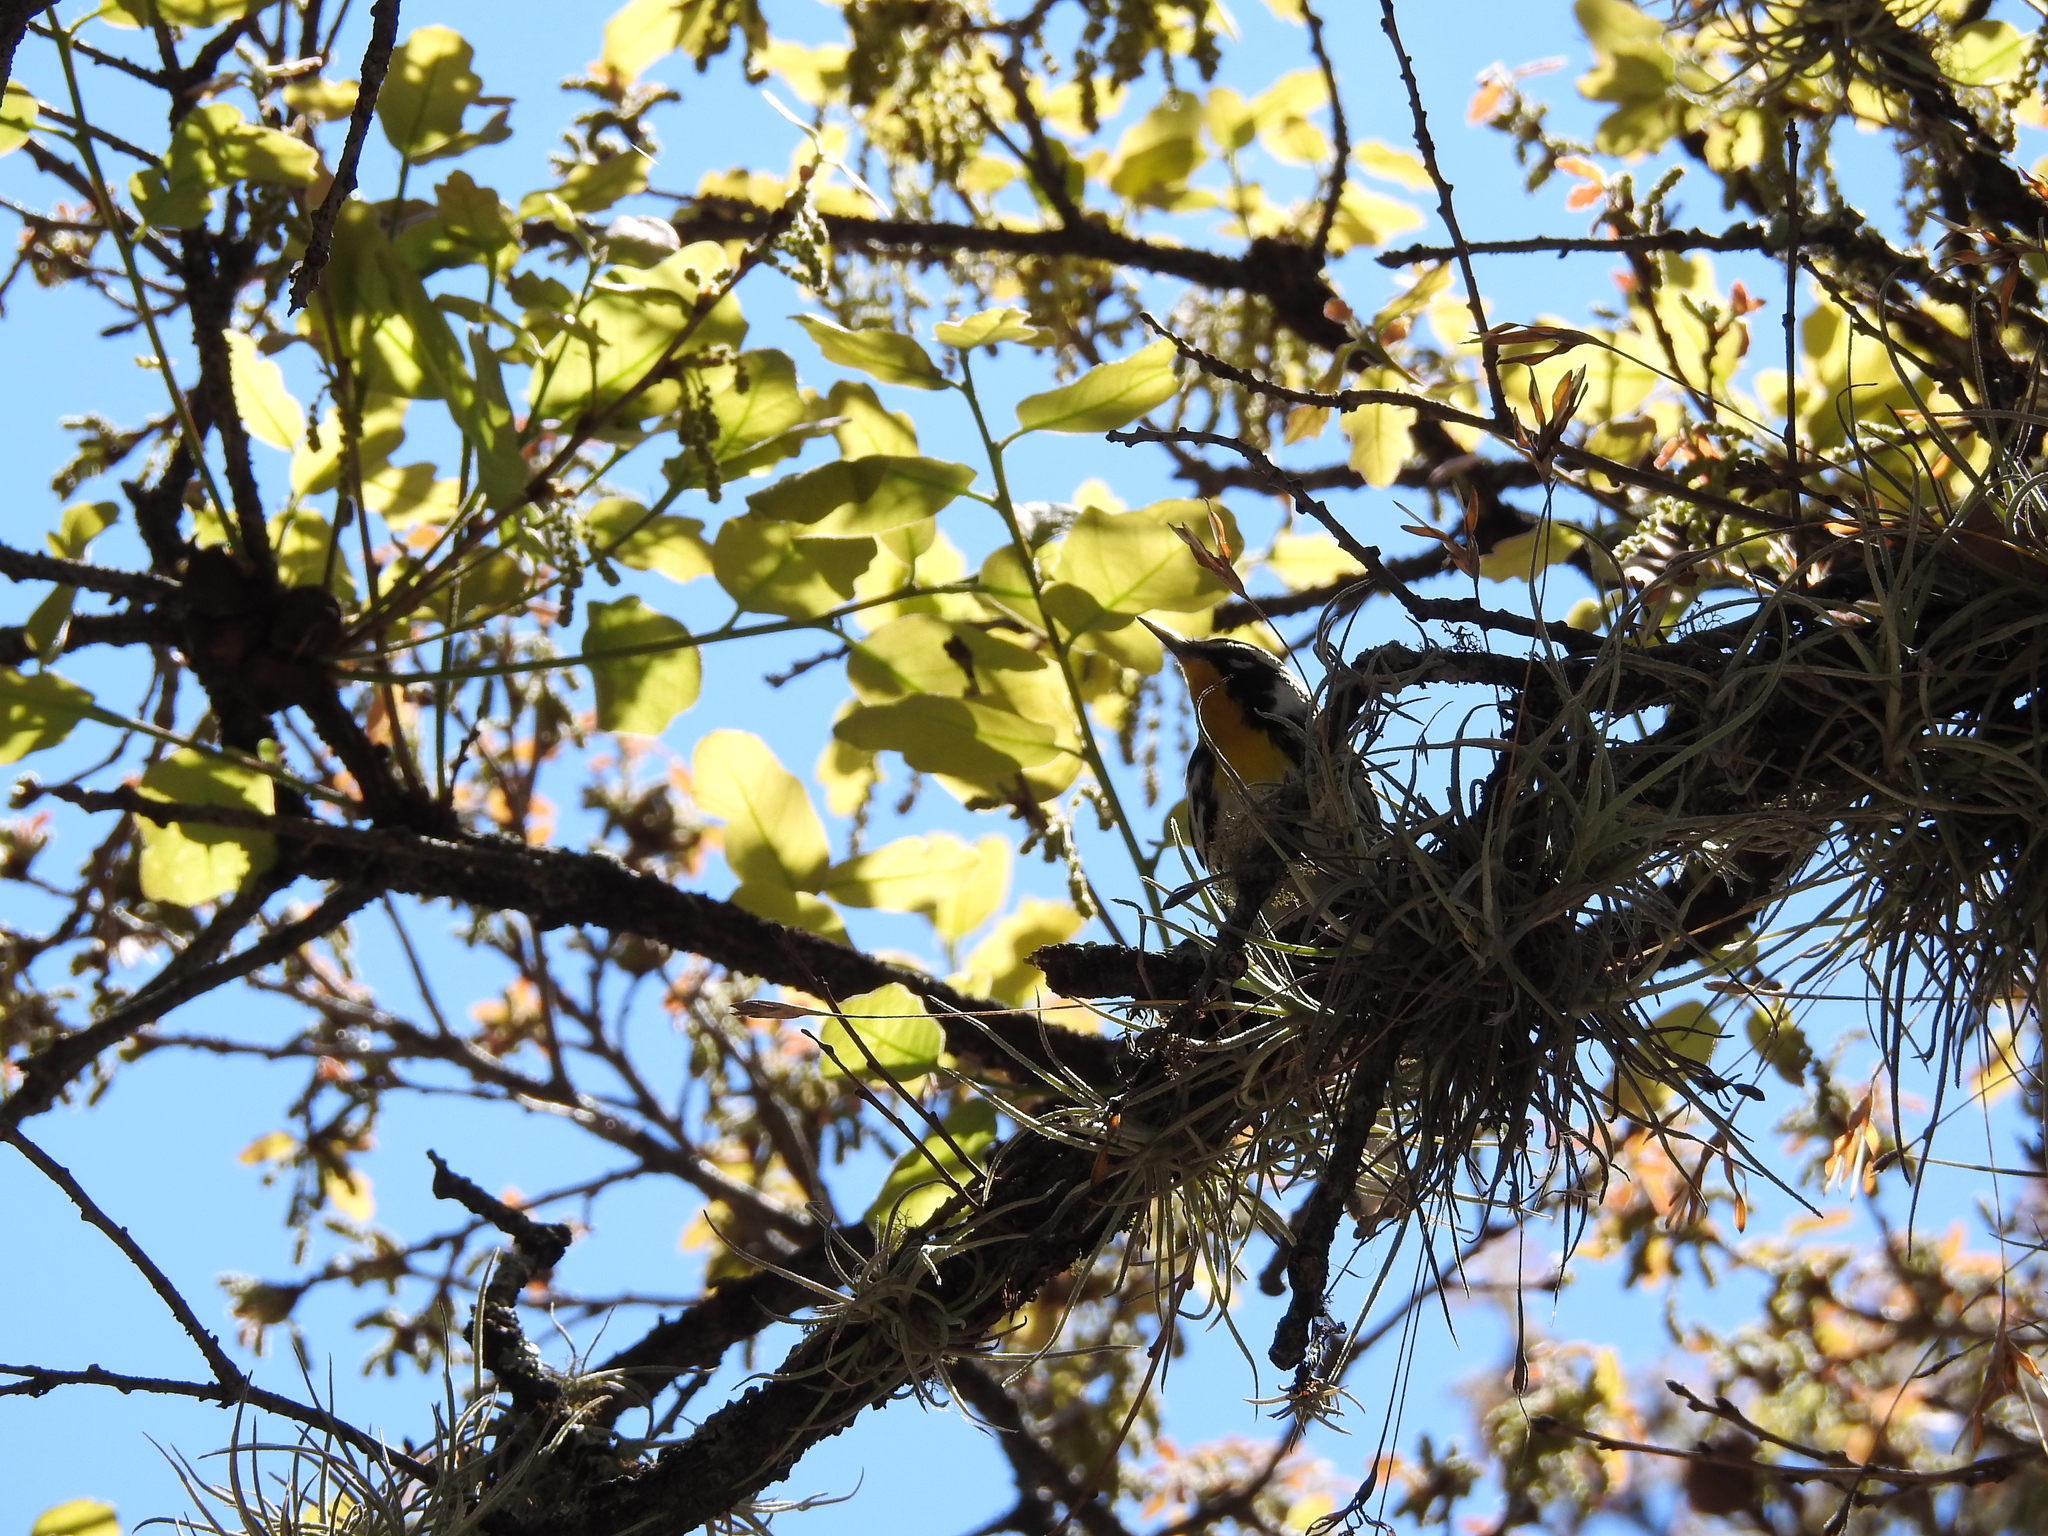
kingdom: Animalia
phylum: Chordata
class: Aves
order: Passeriformes
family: Parulidae
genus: Setophaga
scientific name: Setophaga dominica
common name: Yellow-throated warbler
